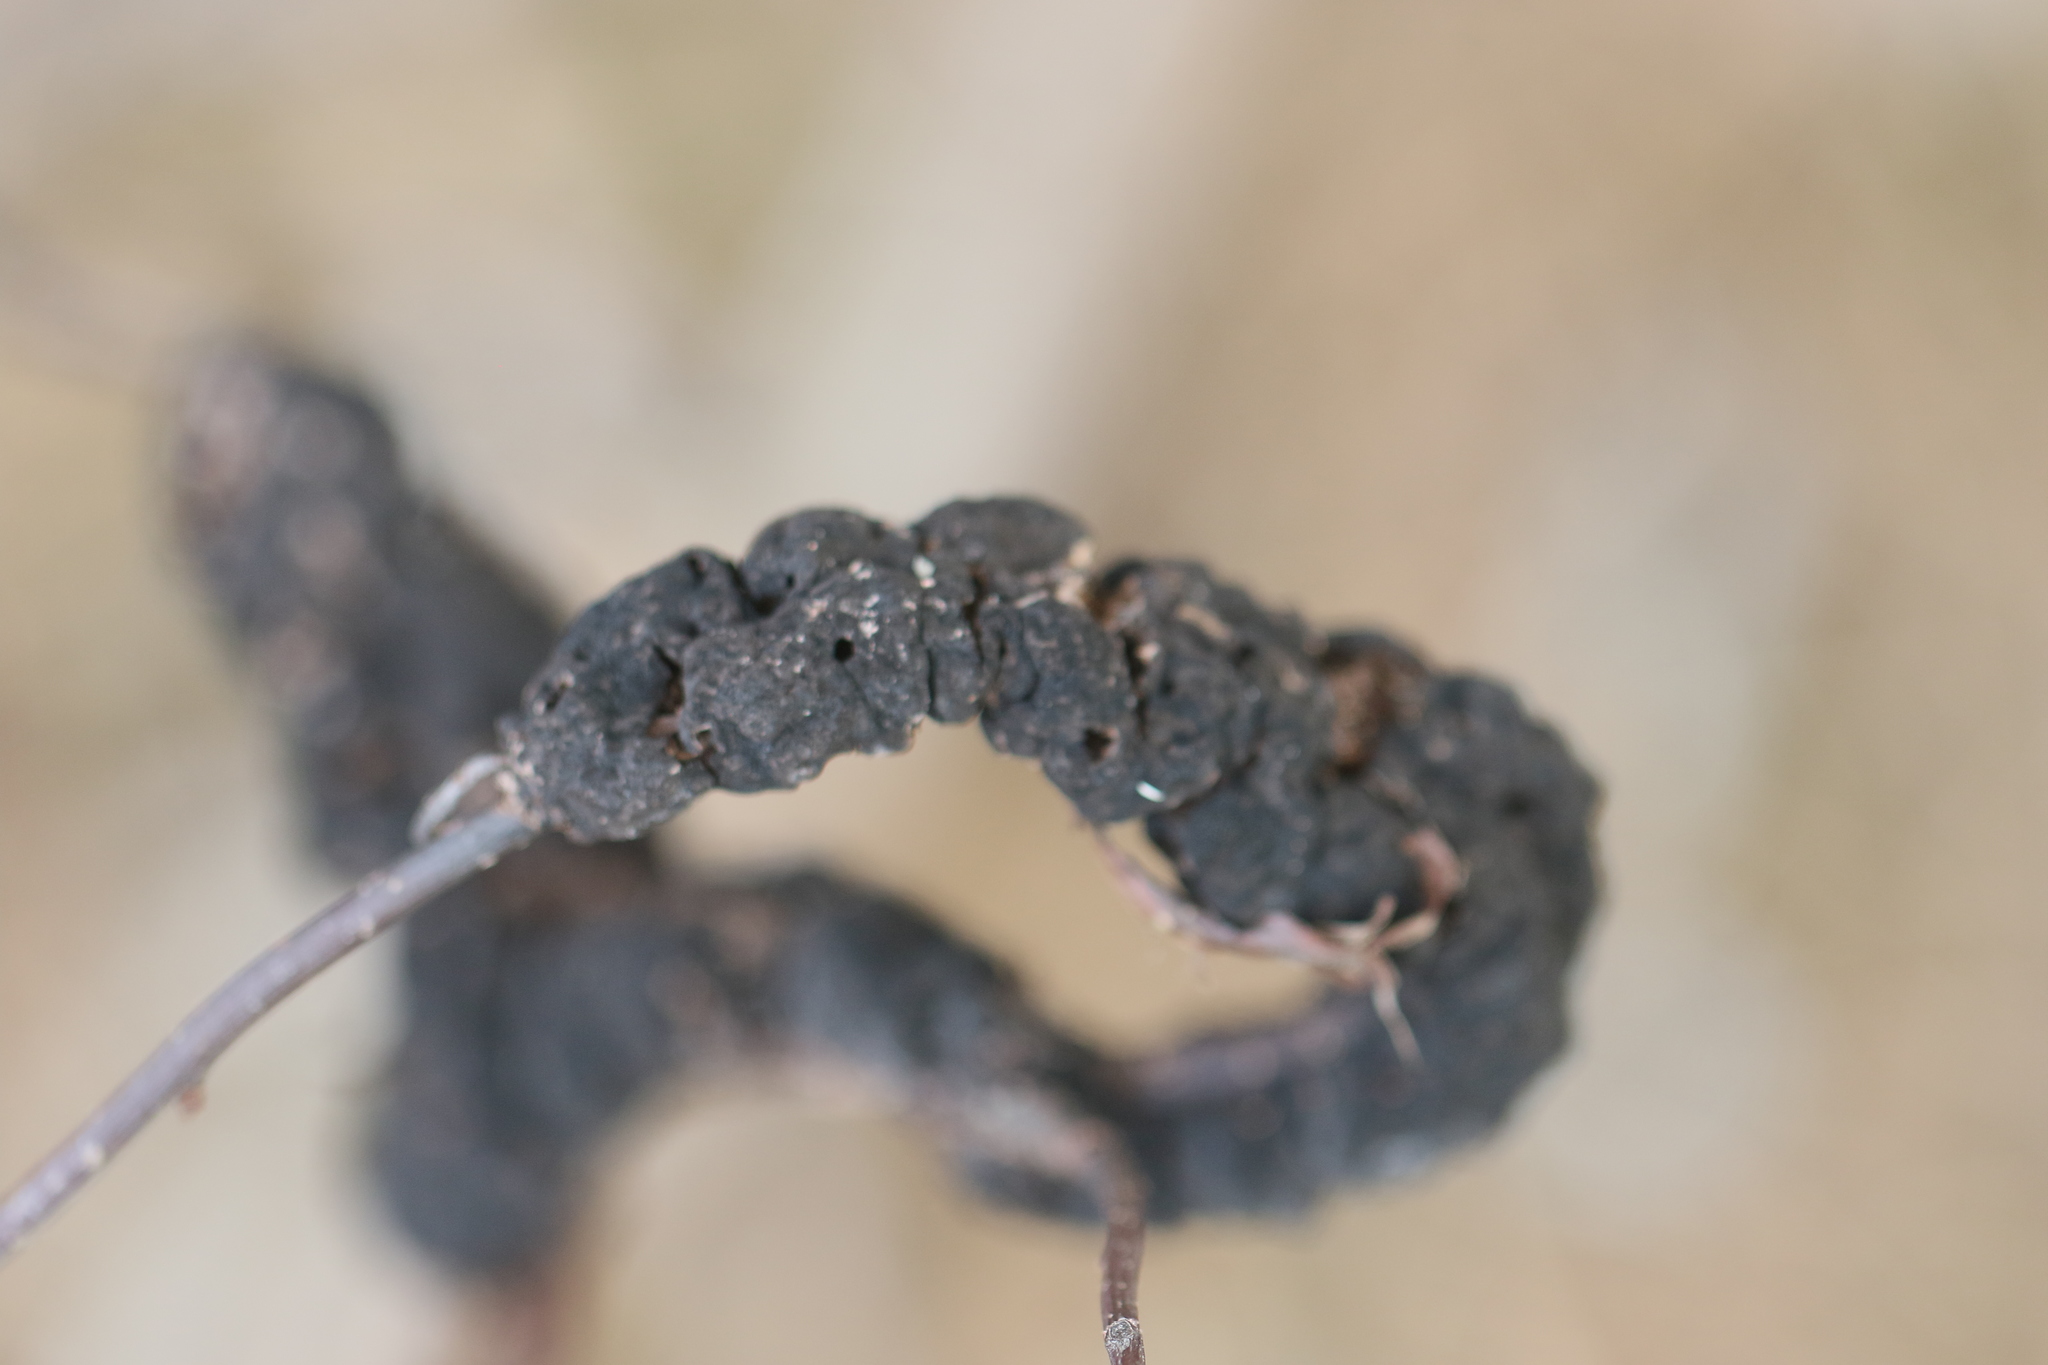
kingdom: Fungi
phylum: Ascomycota
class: Dothideomycetes
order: Venturiales
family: Venturiaceae
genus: Apiosporina
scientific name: Apiosporina morbosa
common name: Black knot
